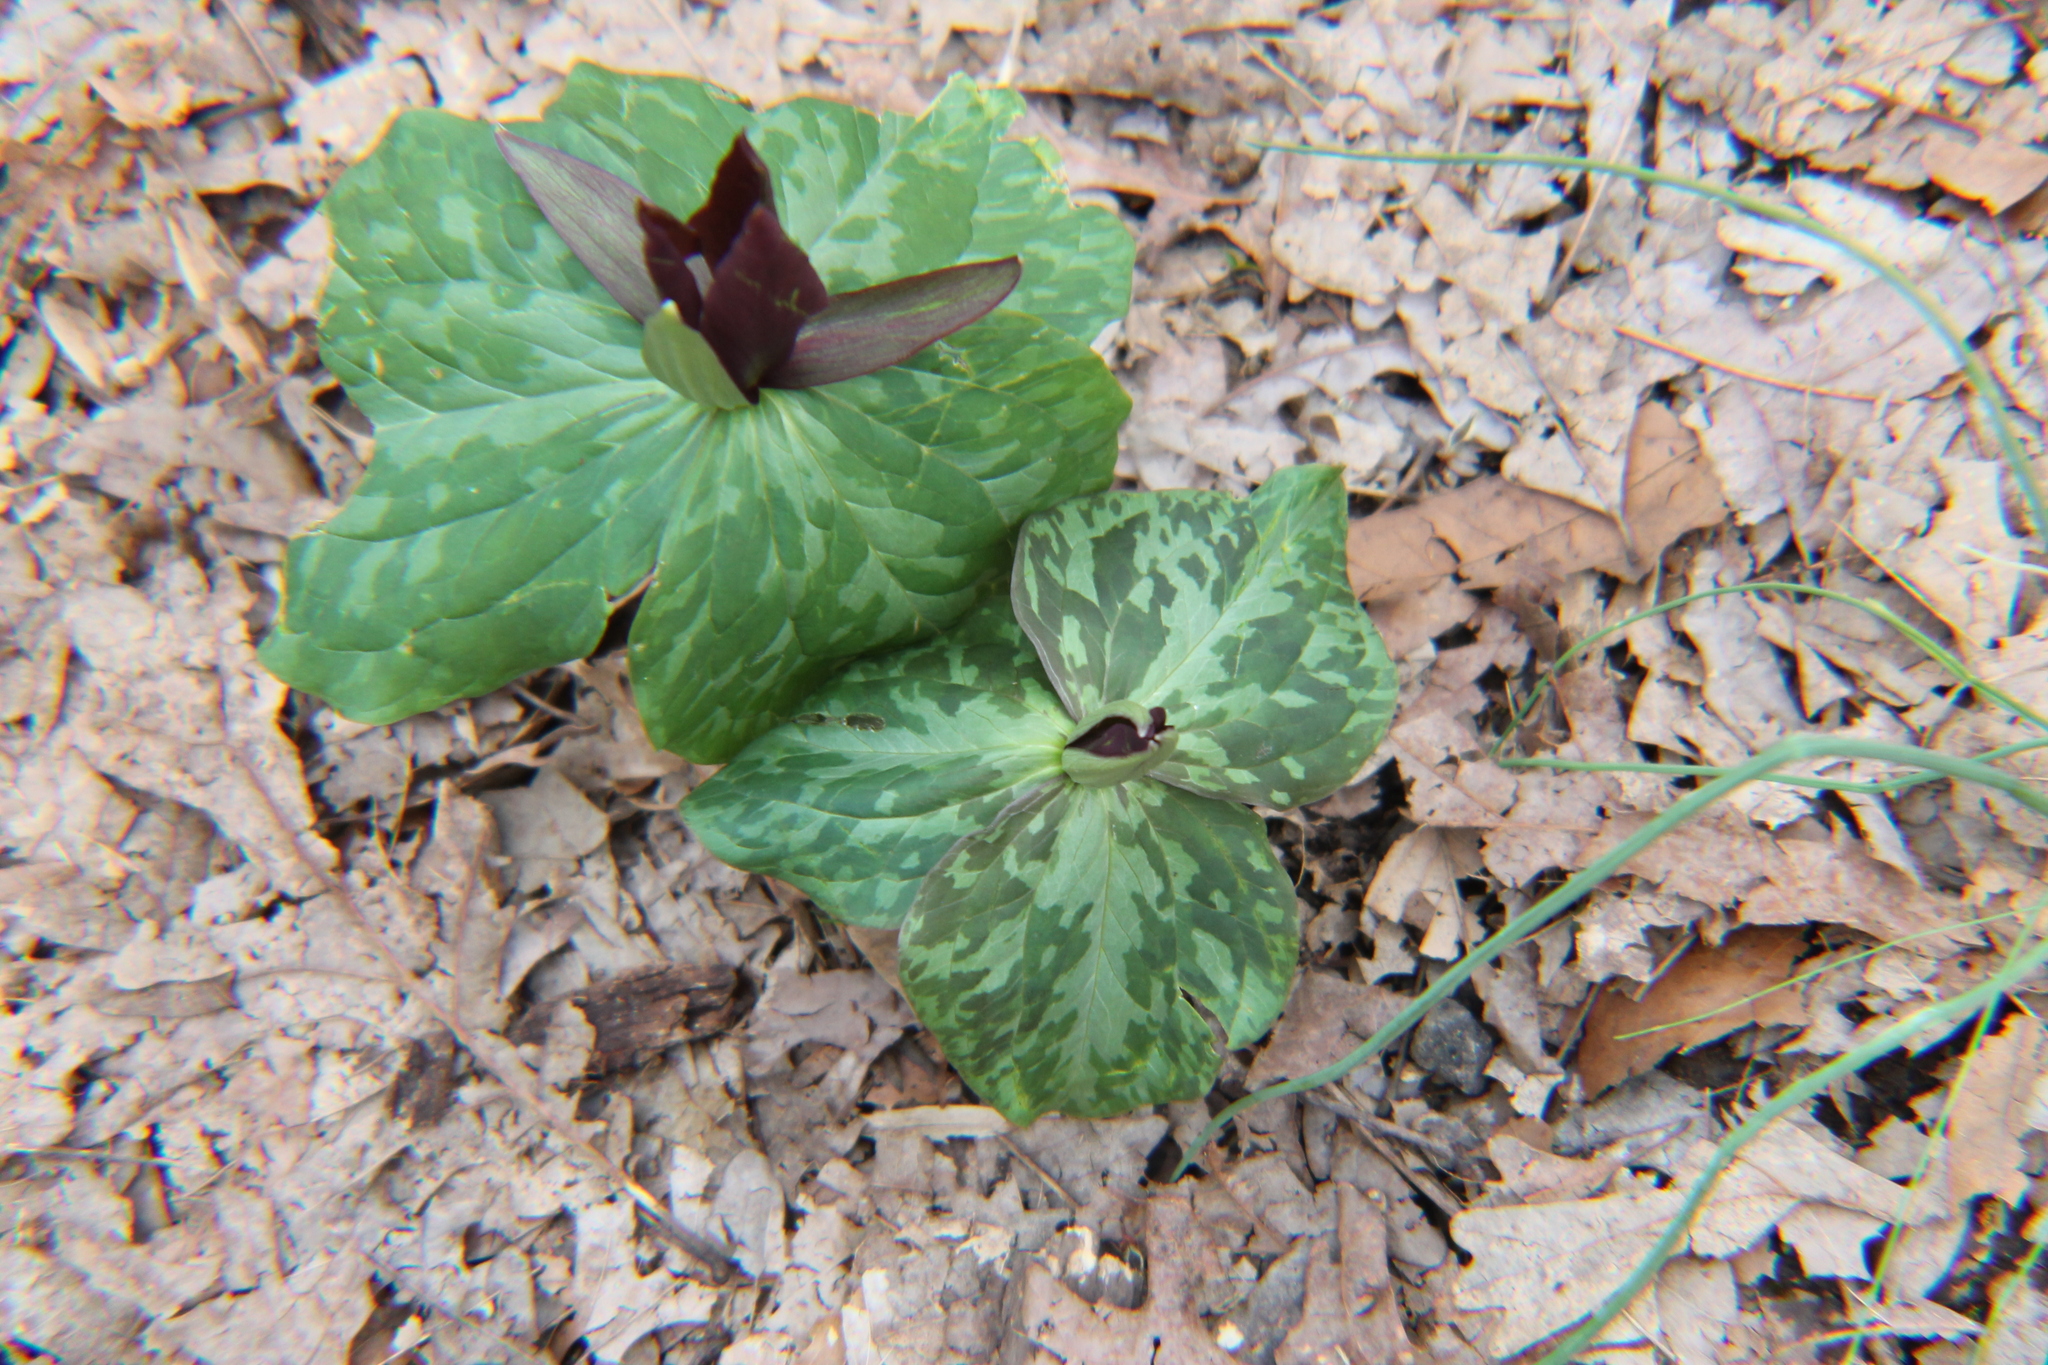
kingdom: Plantae
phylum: Tracheophyta
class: Liliopsida
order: Liliales
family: Melanthiaceae
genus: Trillium
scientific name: Trillium cuneatum
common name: Cuneate trillium
